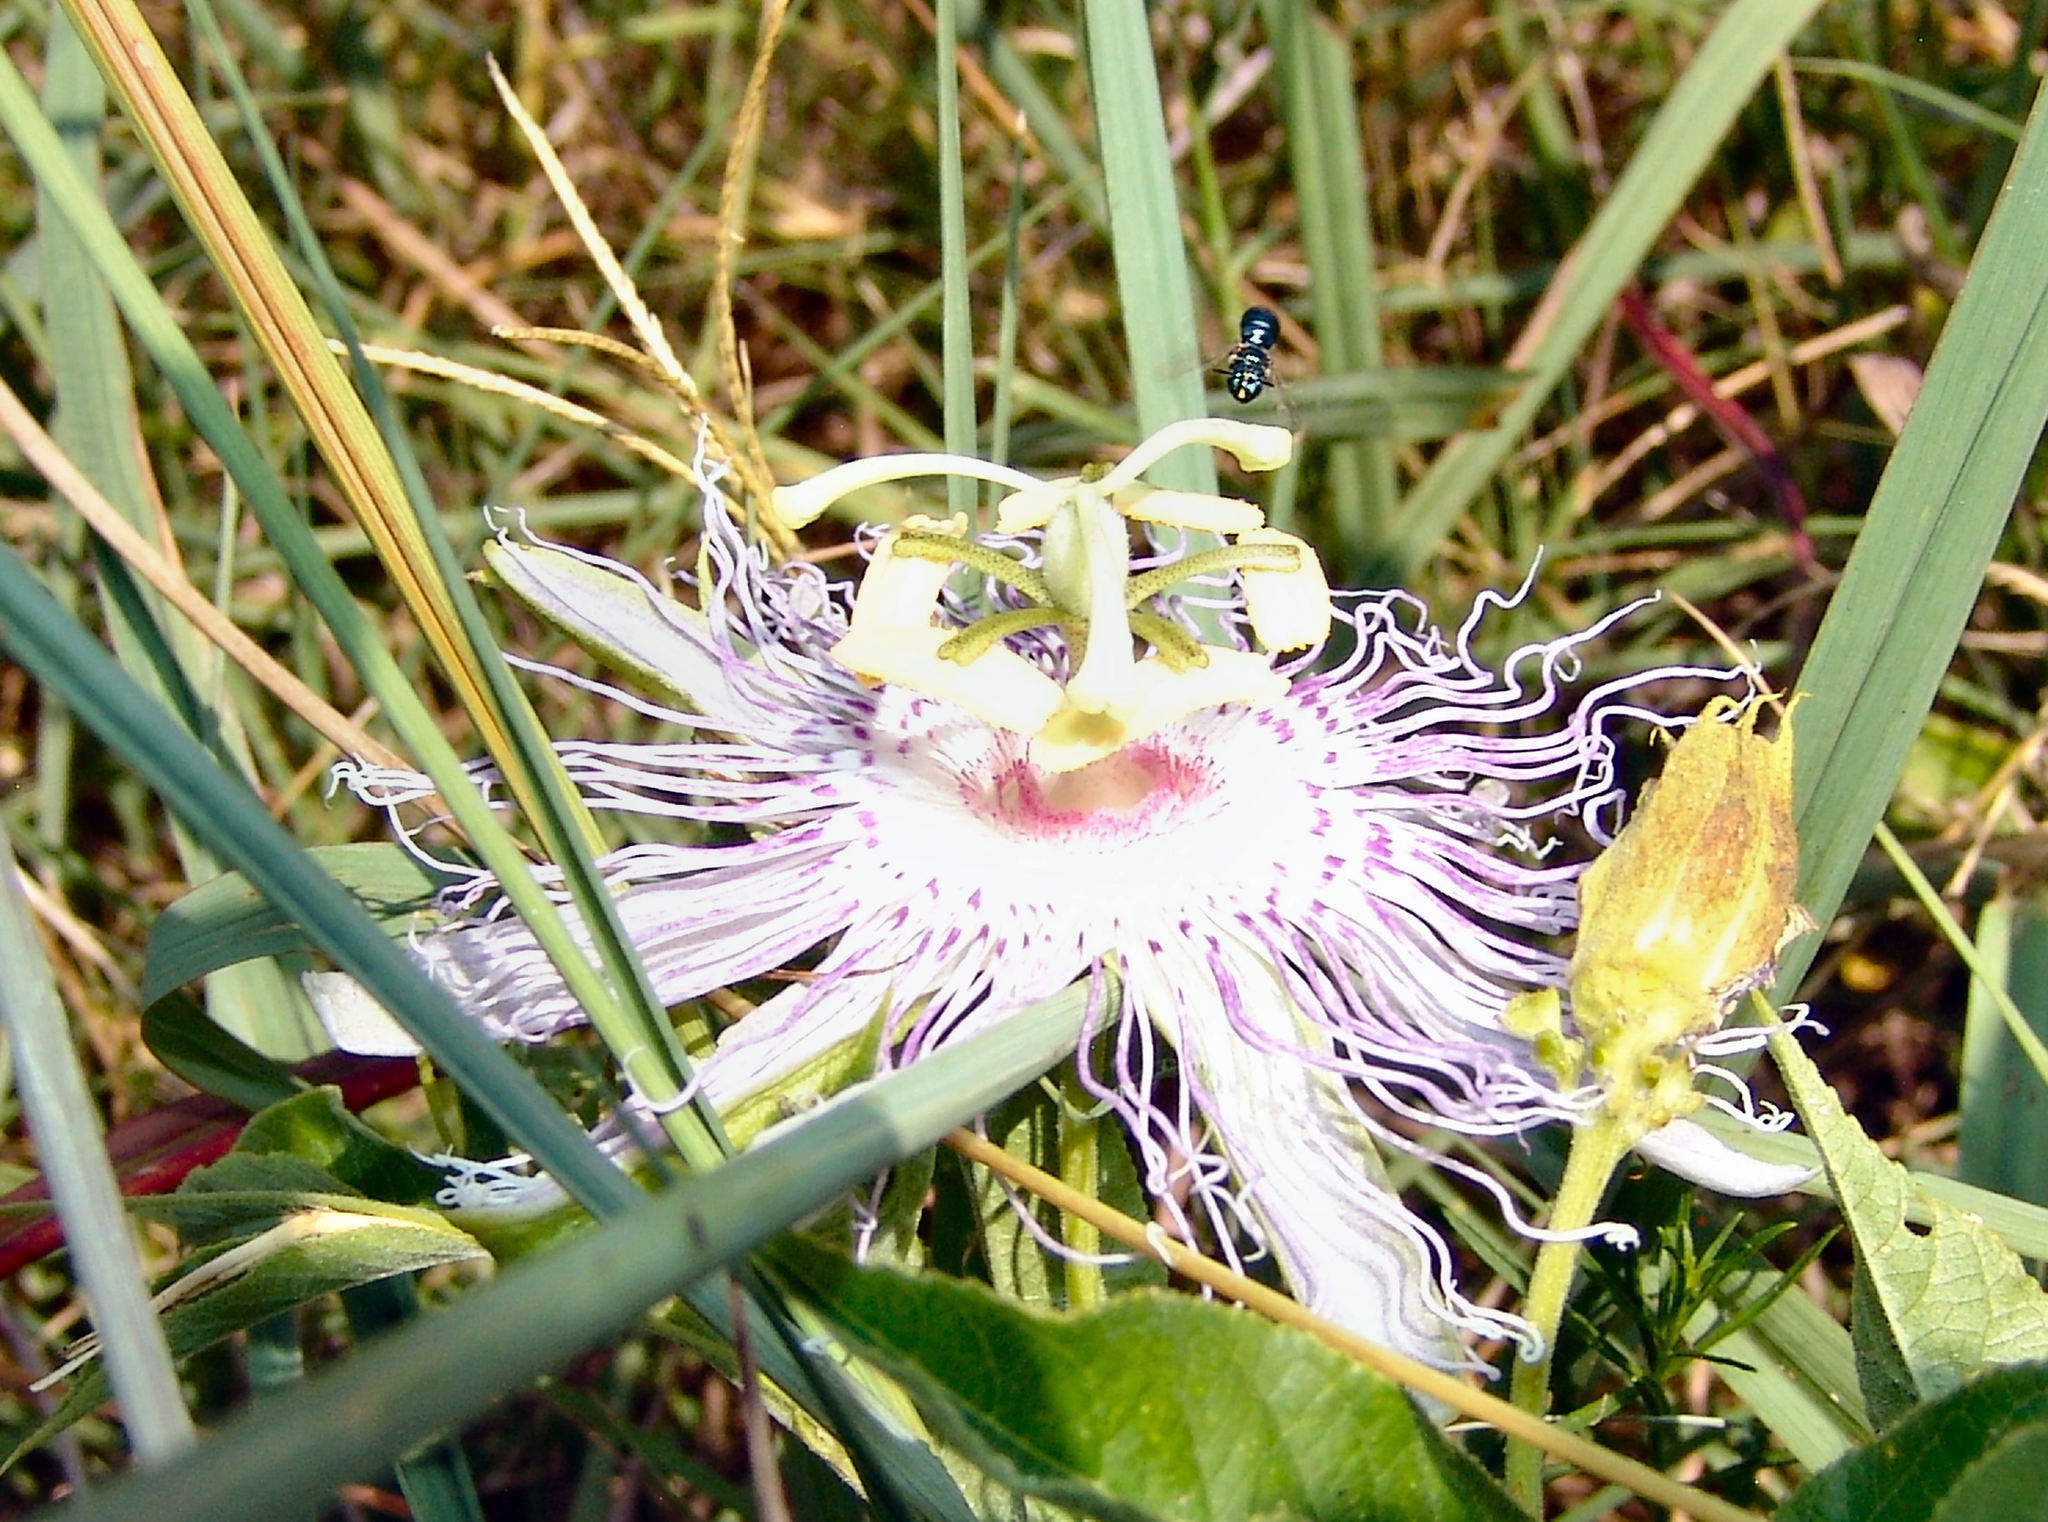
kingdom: Plantae
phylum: Tracheophyta
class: Magnoliopsida
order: Malpighiales
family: Passifloraceae
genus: Passiflora
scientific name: Passiflora incarnata
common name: Apricot-vine
